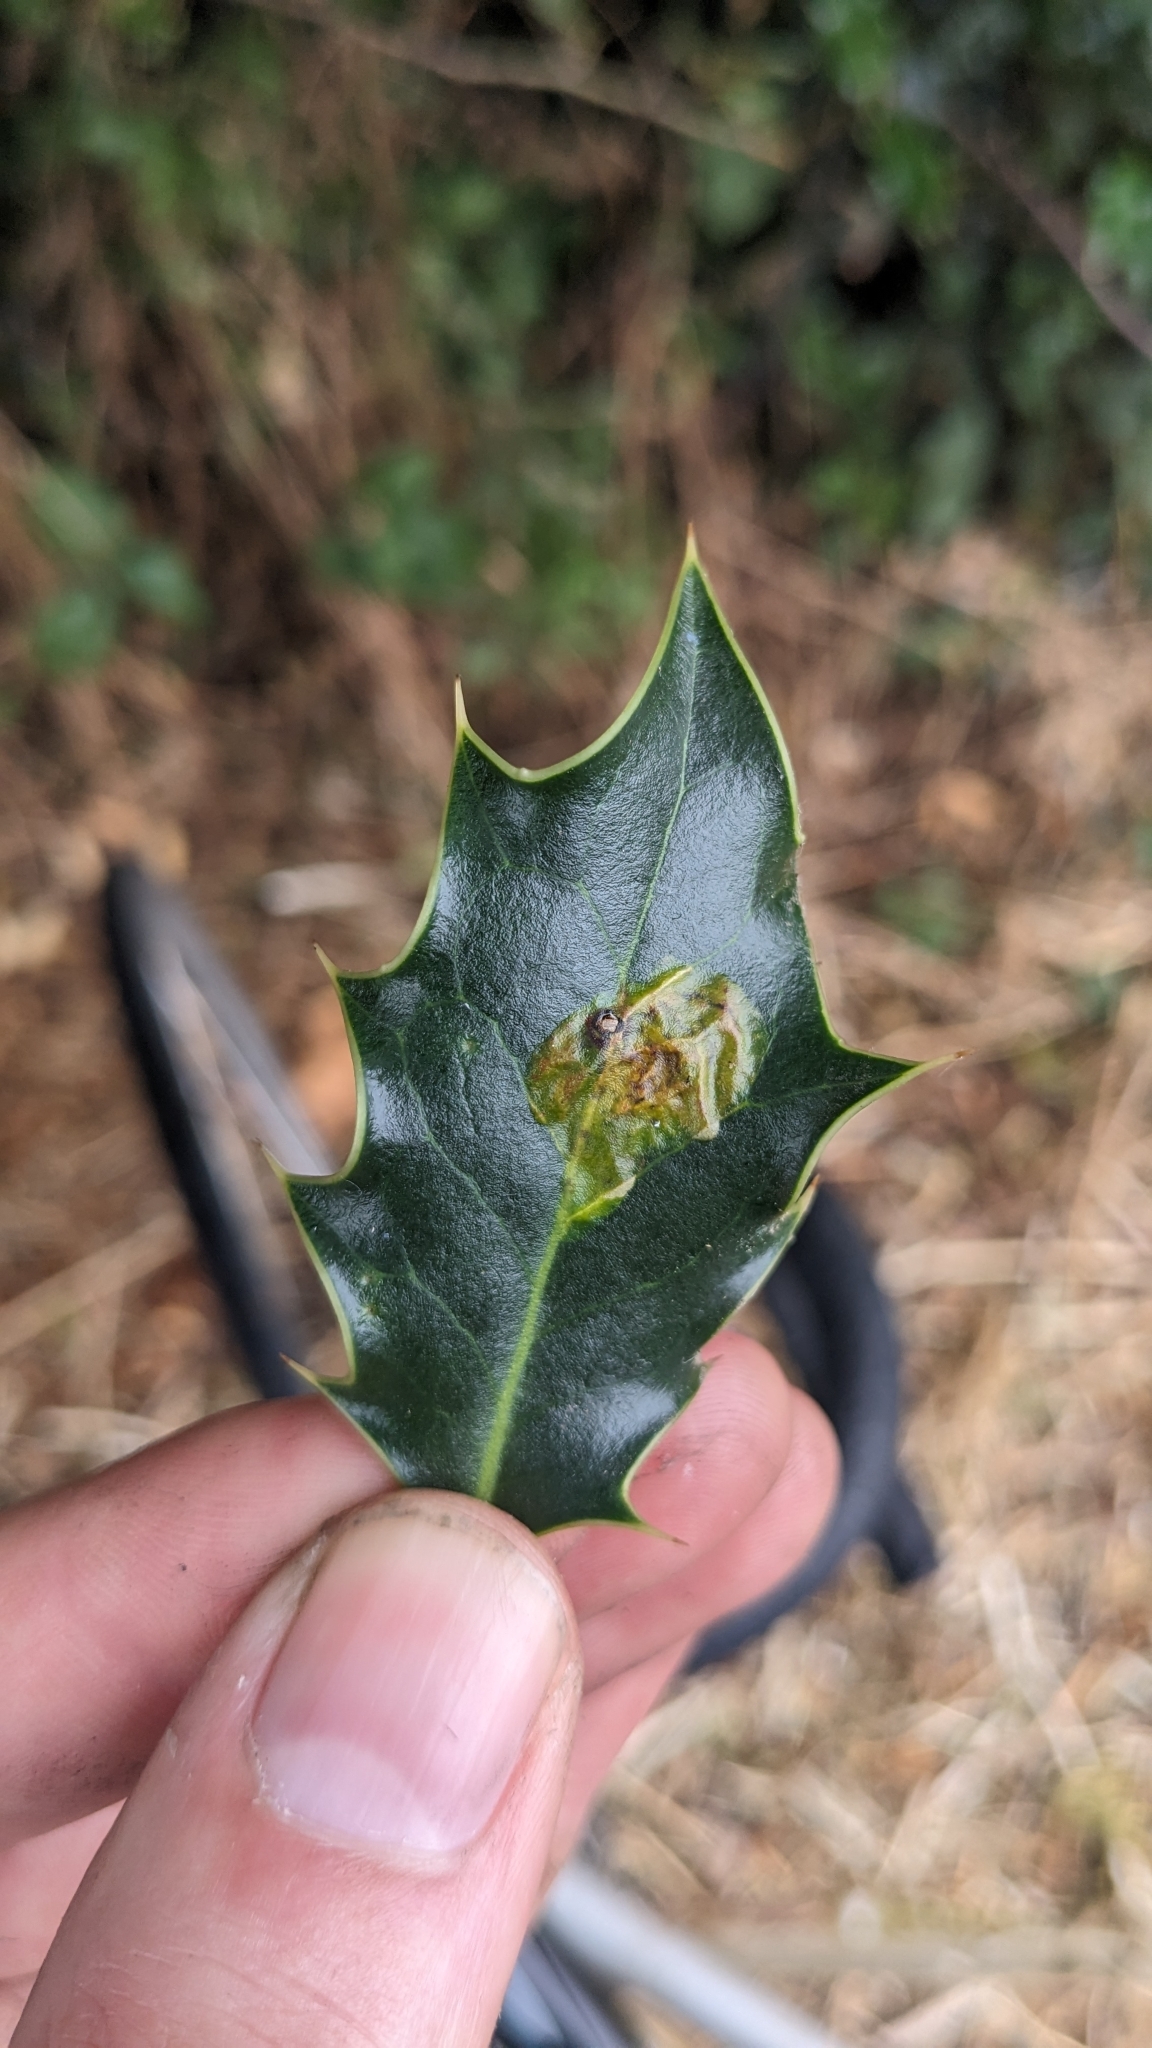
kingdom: Animalia
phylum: Arthropoda
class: Insecta
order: Diptera
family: Agromyzidae
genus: Phytomyza
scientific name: Phytomyza ilicis
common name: Holly leafminer
